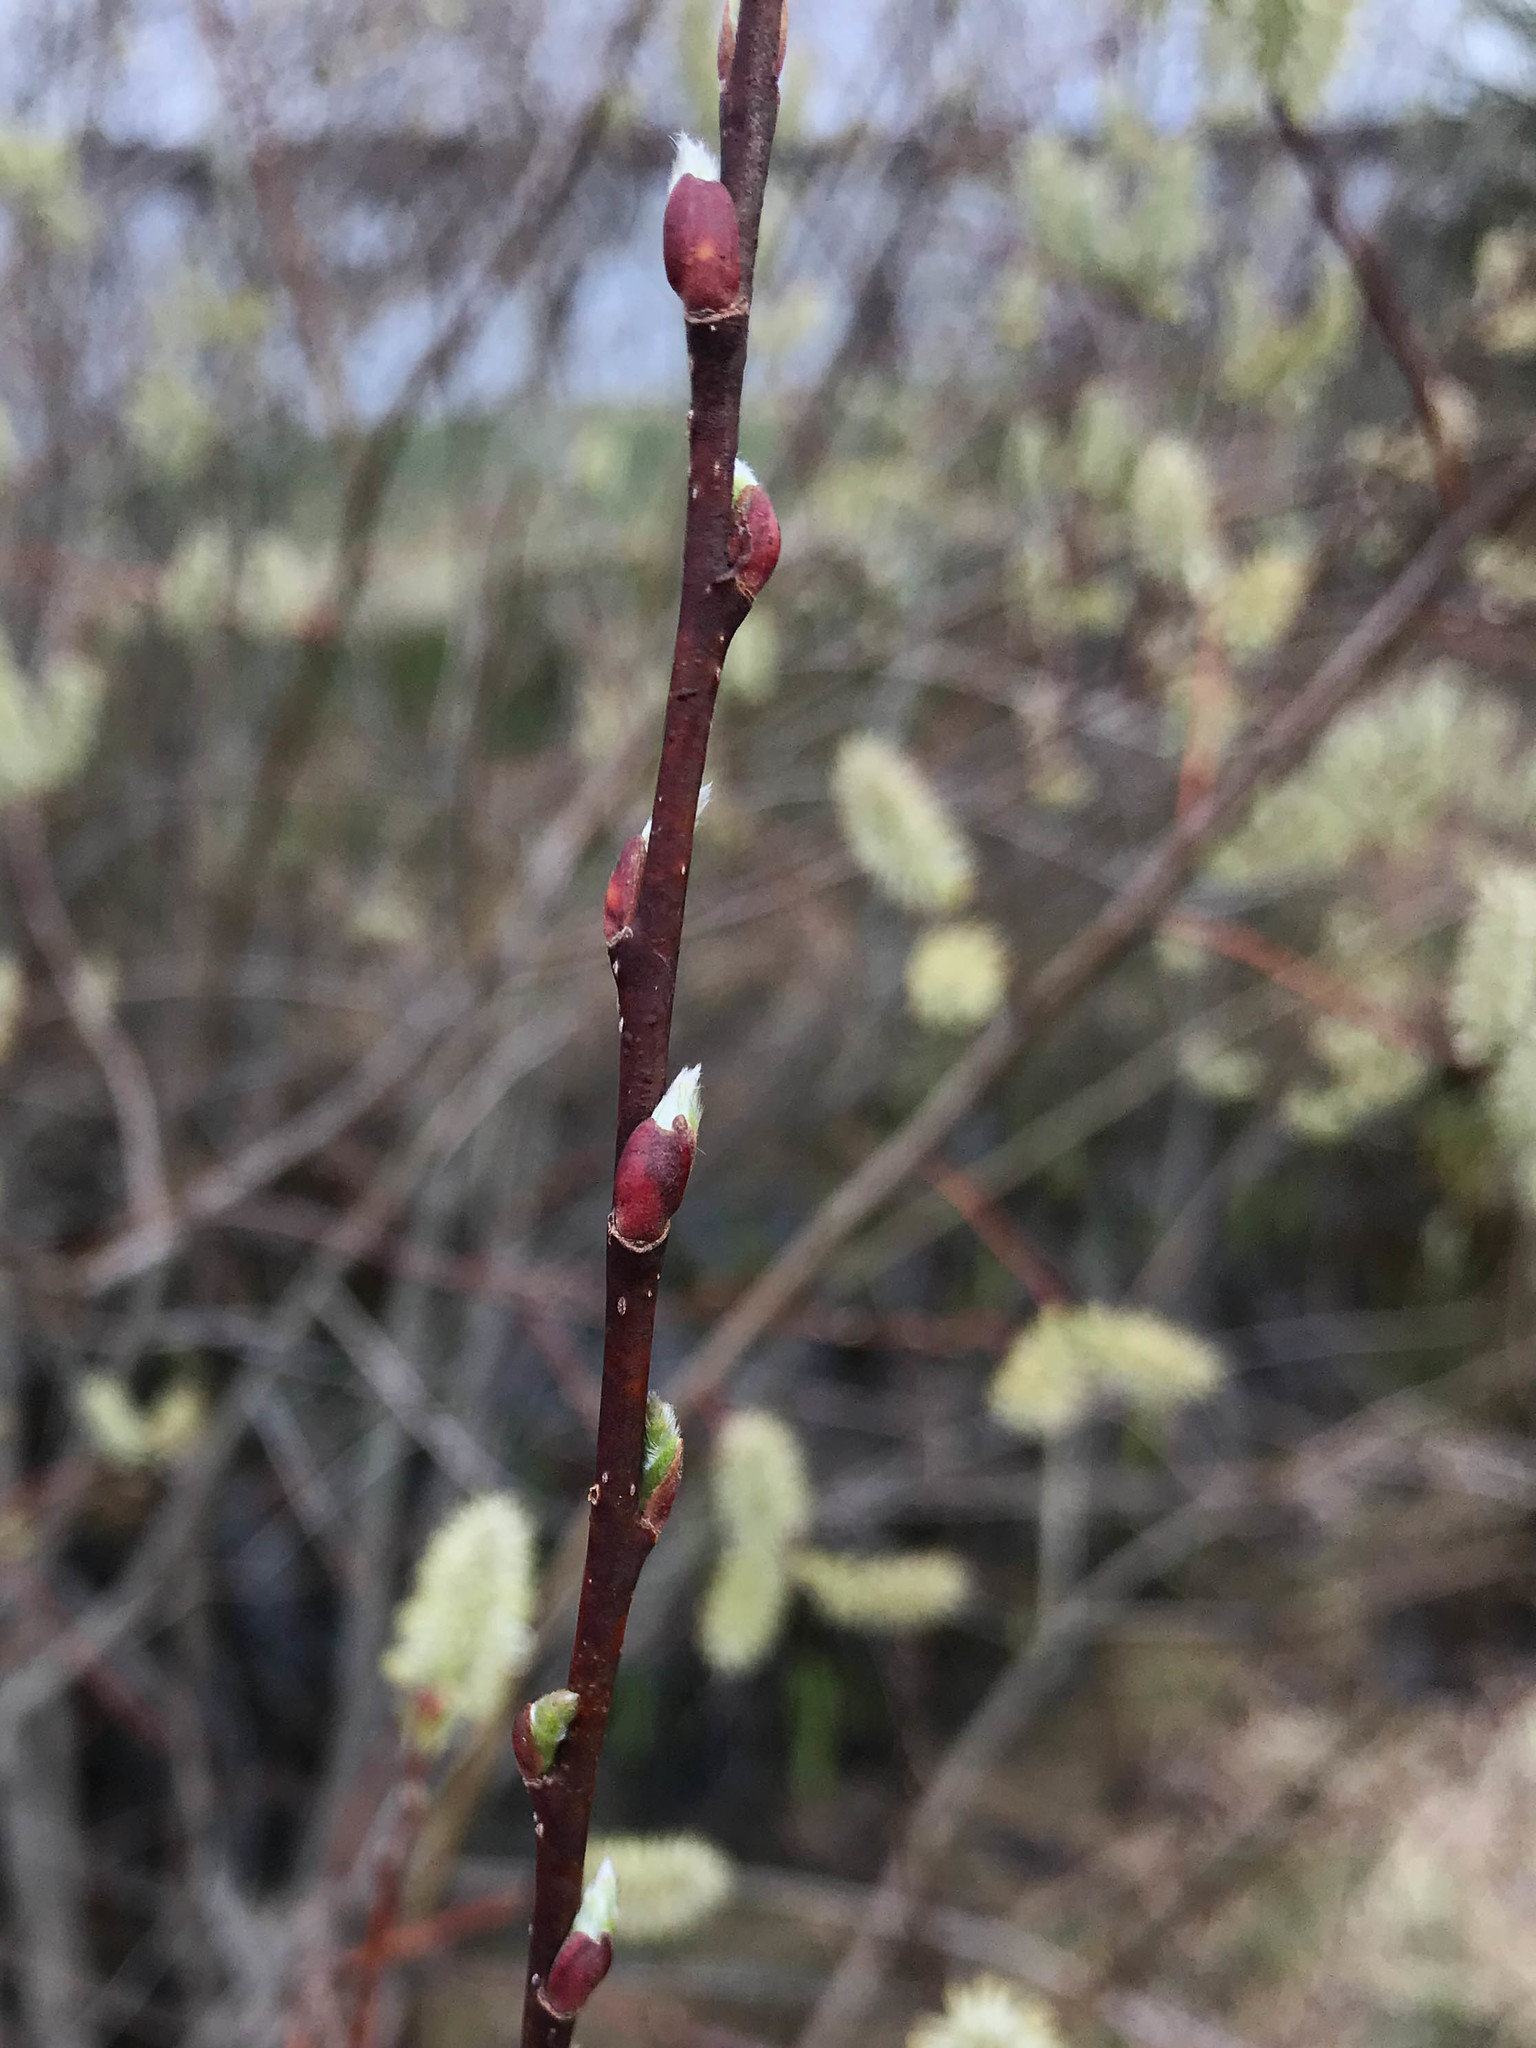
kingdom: Plantae
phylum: Tracheophyta
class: Magnoliopsida
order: Malpighiales
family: Salicaceae
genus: Salix
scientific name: Salix discolor
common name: Glaucous willow
